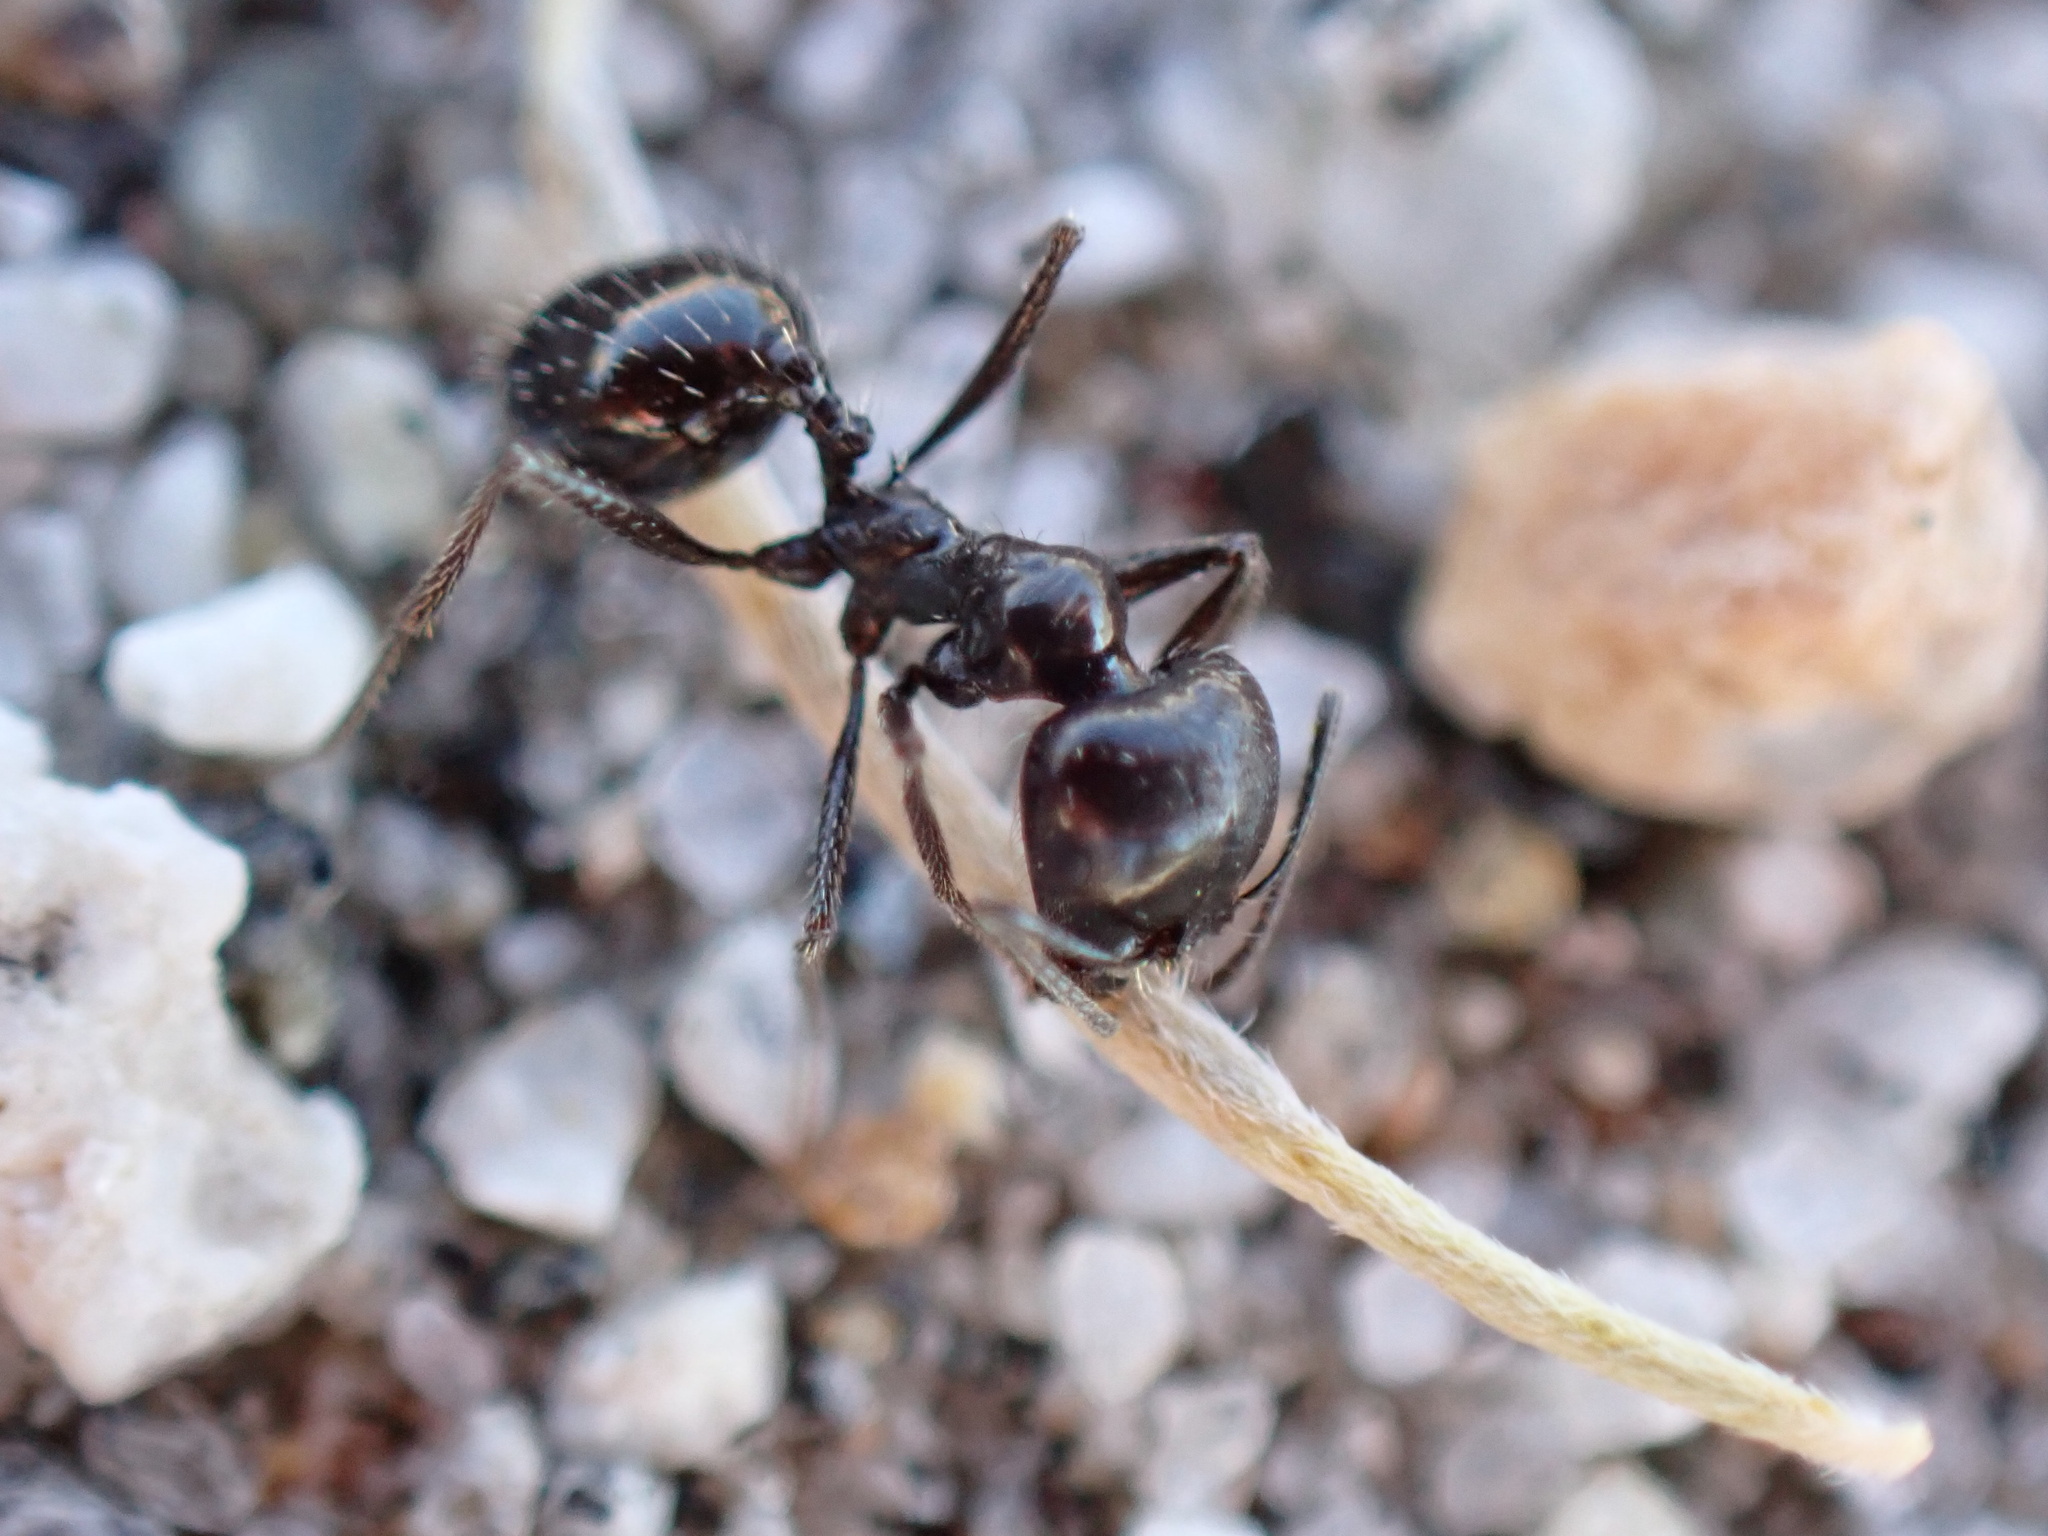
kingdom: Animalia
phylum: Arthropoda
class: Insecta
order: Hymenoptera
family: Formicidae
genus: Messor
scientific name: Messor pergandei
